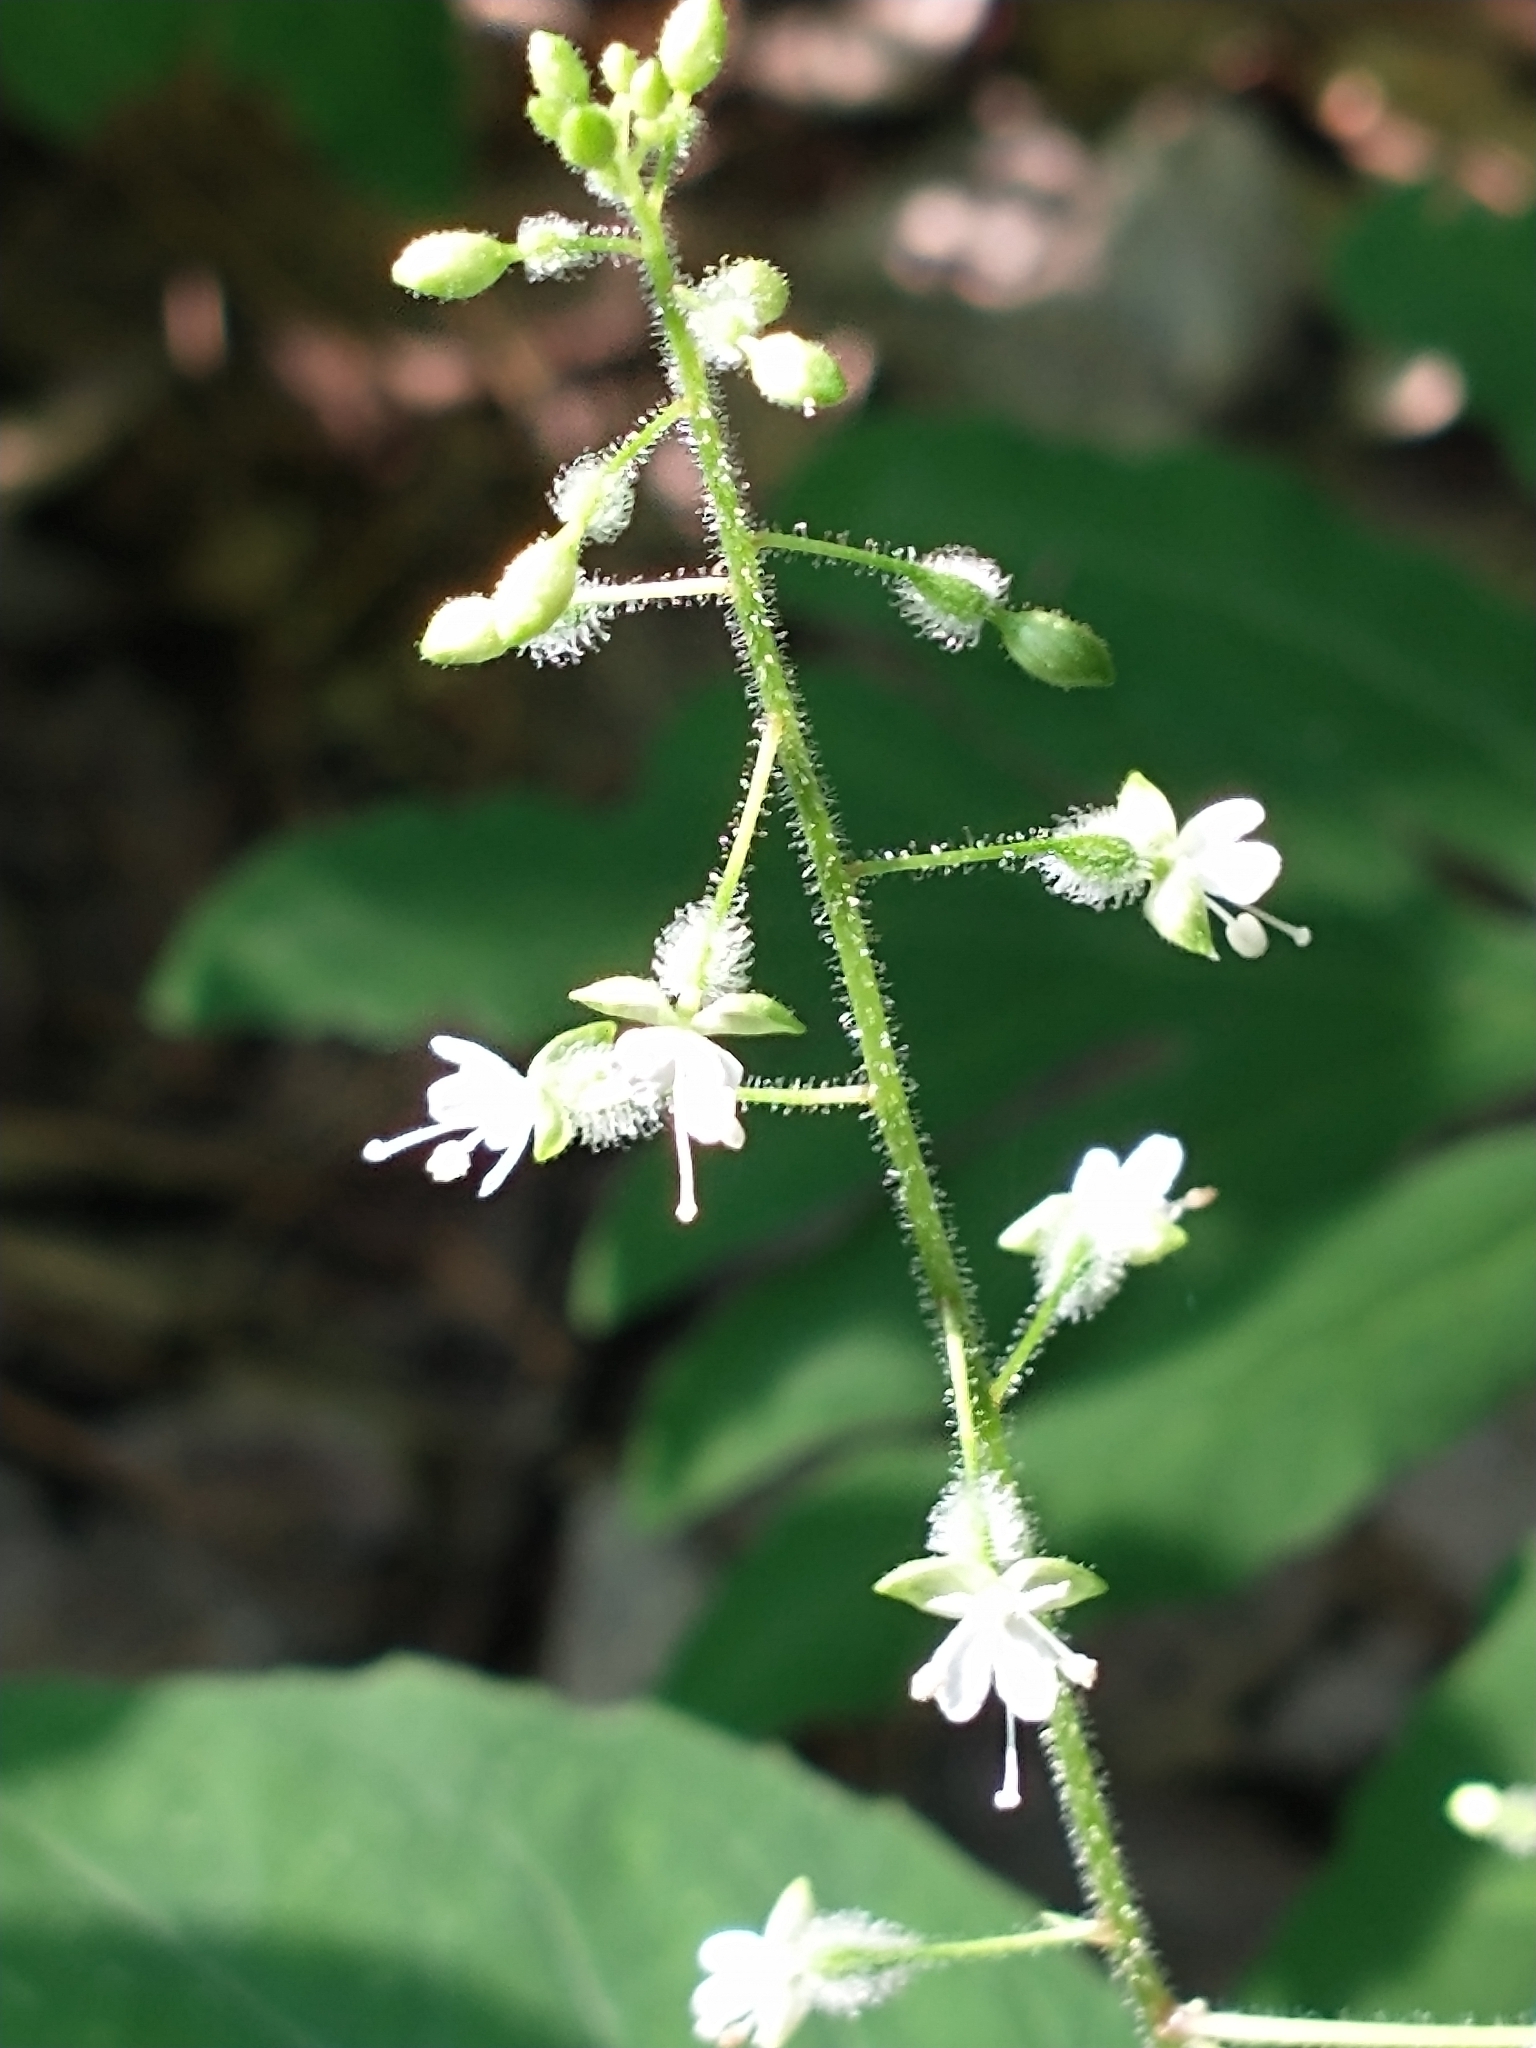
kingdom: Plantae
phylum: Tracheophyta
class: Magnoliopsida
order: Myrtales
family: Onagraceae
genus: Circaea
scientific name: Circaea canadensis
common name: Broad-leaved enchanter's nightshade
